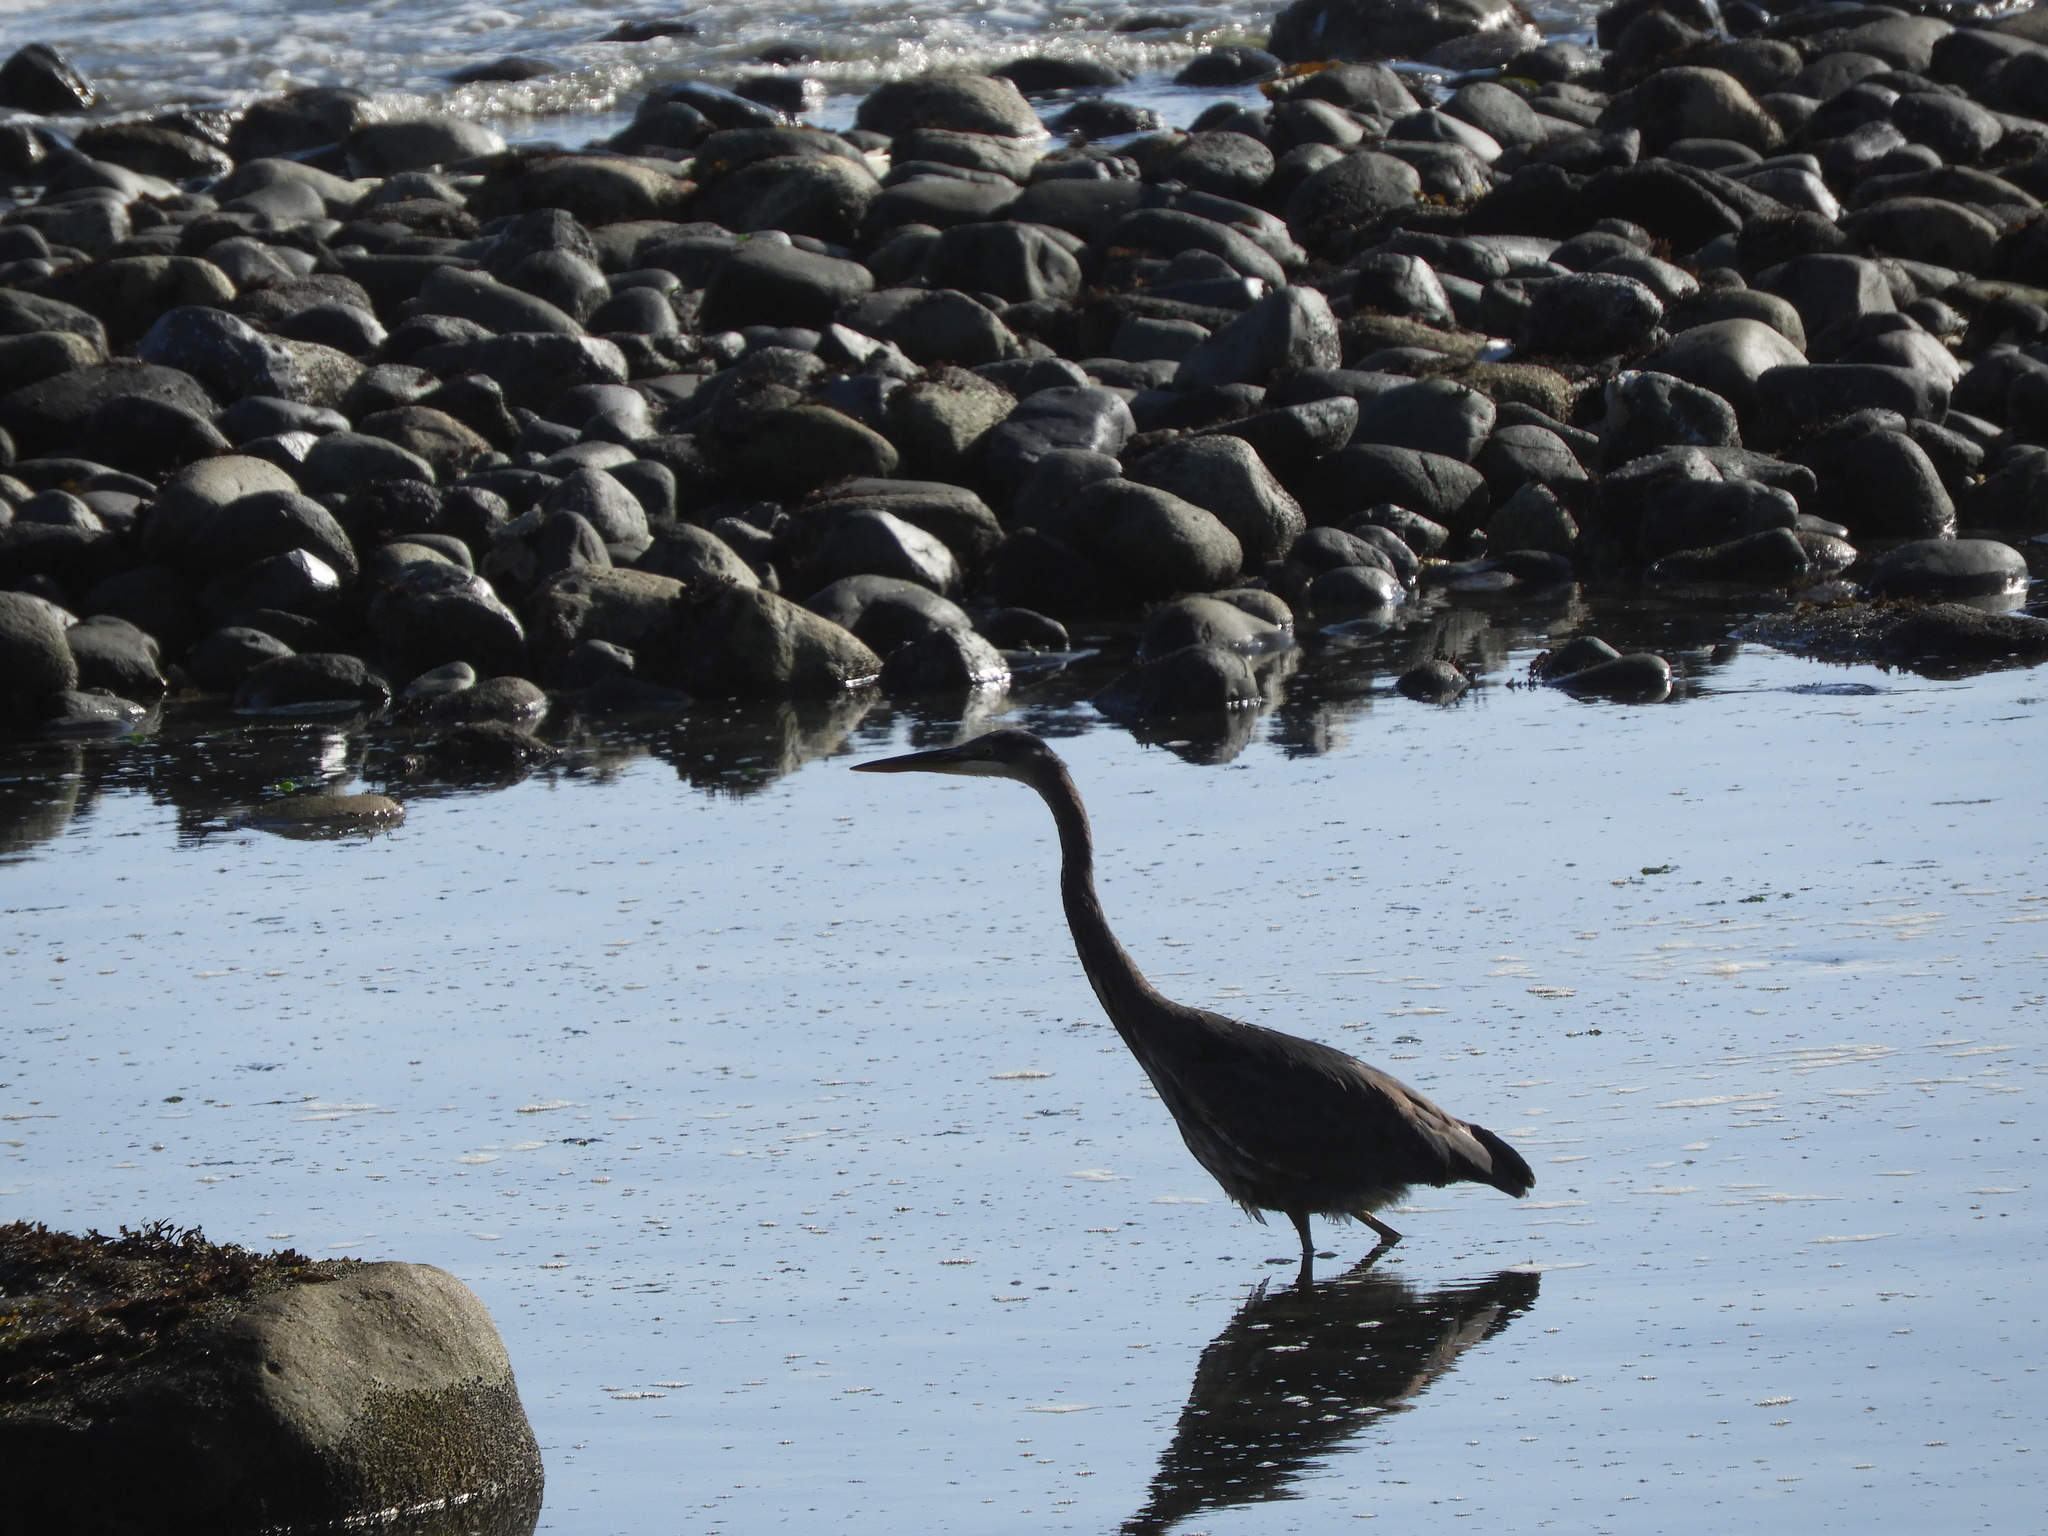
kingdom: Animalia
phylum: Chordata
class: Aves
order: Pelecaniformes
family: Ardeidae
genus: Ardea
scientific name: Ardea herodias
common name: Great blue heron
